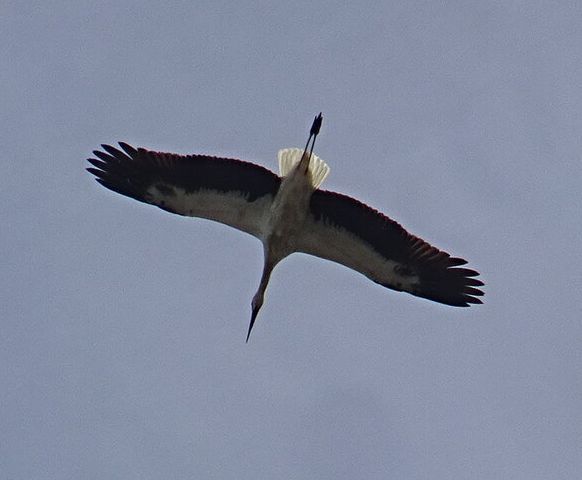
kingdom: Animalia
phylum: Chordata
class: Aves
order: Ciconiiformes
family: Ciconiidae
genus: Ciconia
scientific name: Ciconia ciconia
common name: White stork
